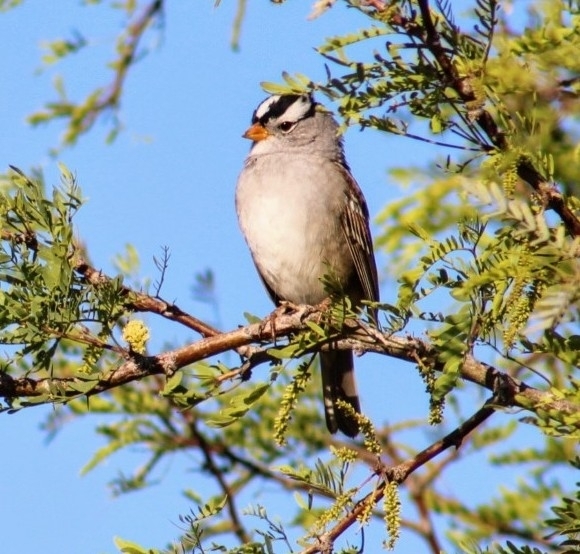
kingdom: Animalia
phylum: Chordata
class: Aves
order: Passeriformes
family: Passerellidae
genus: Zonotrichia
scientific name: Zonotrichia leucophrys
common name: White-crowned sparrow
